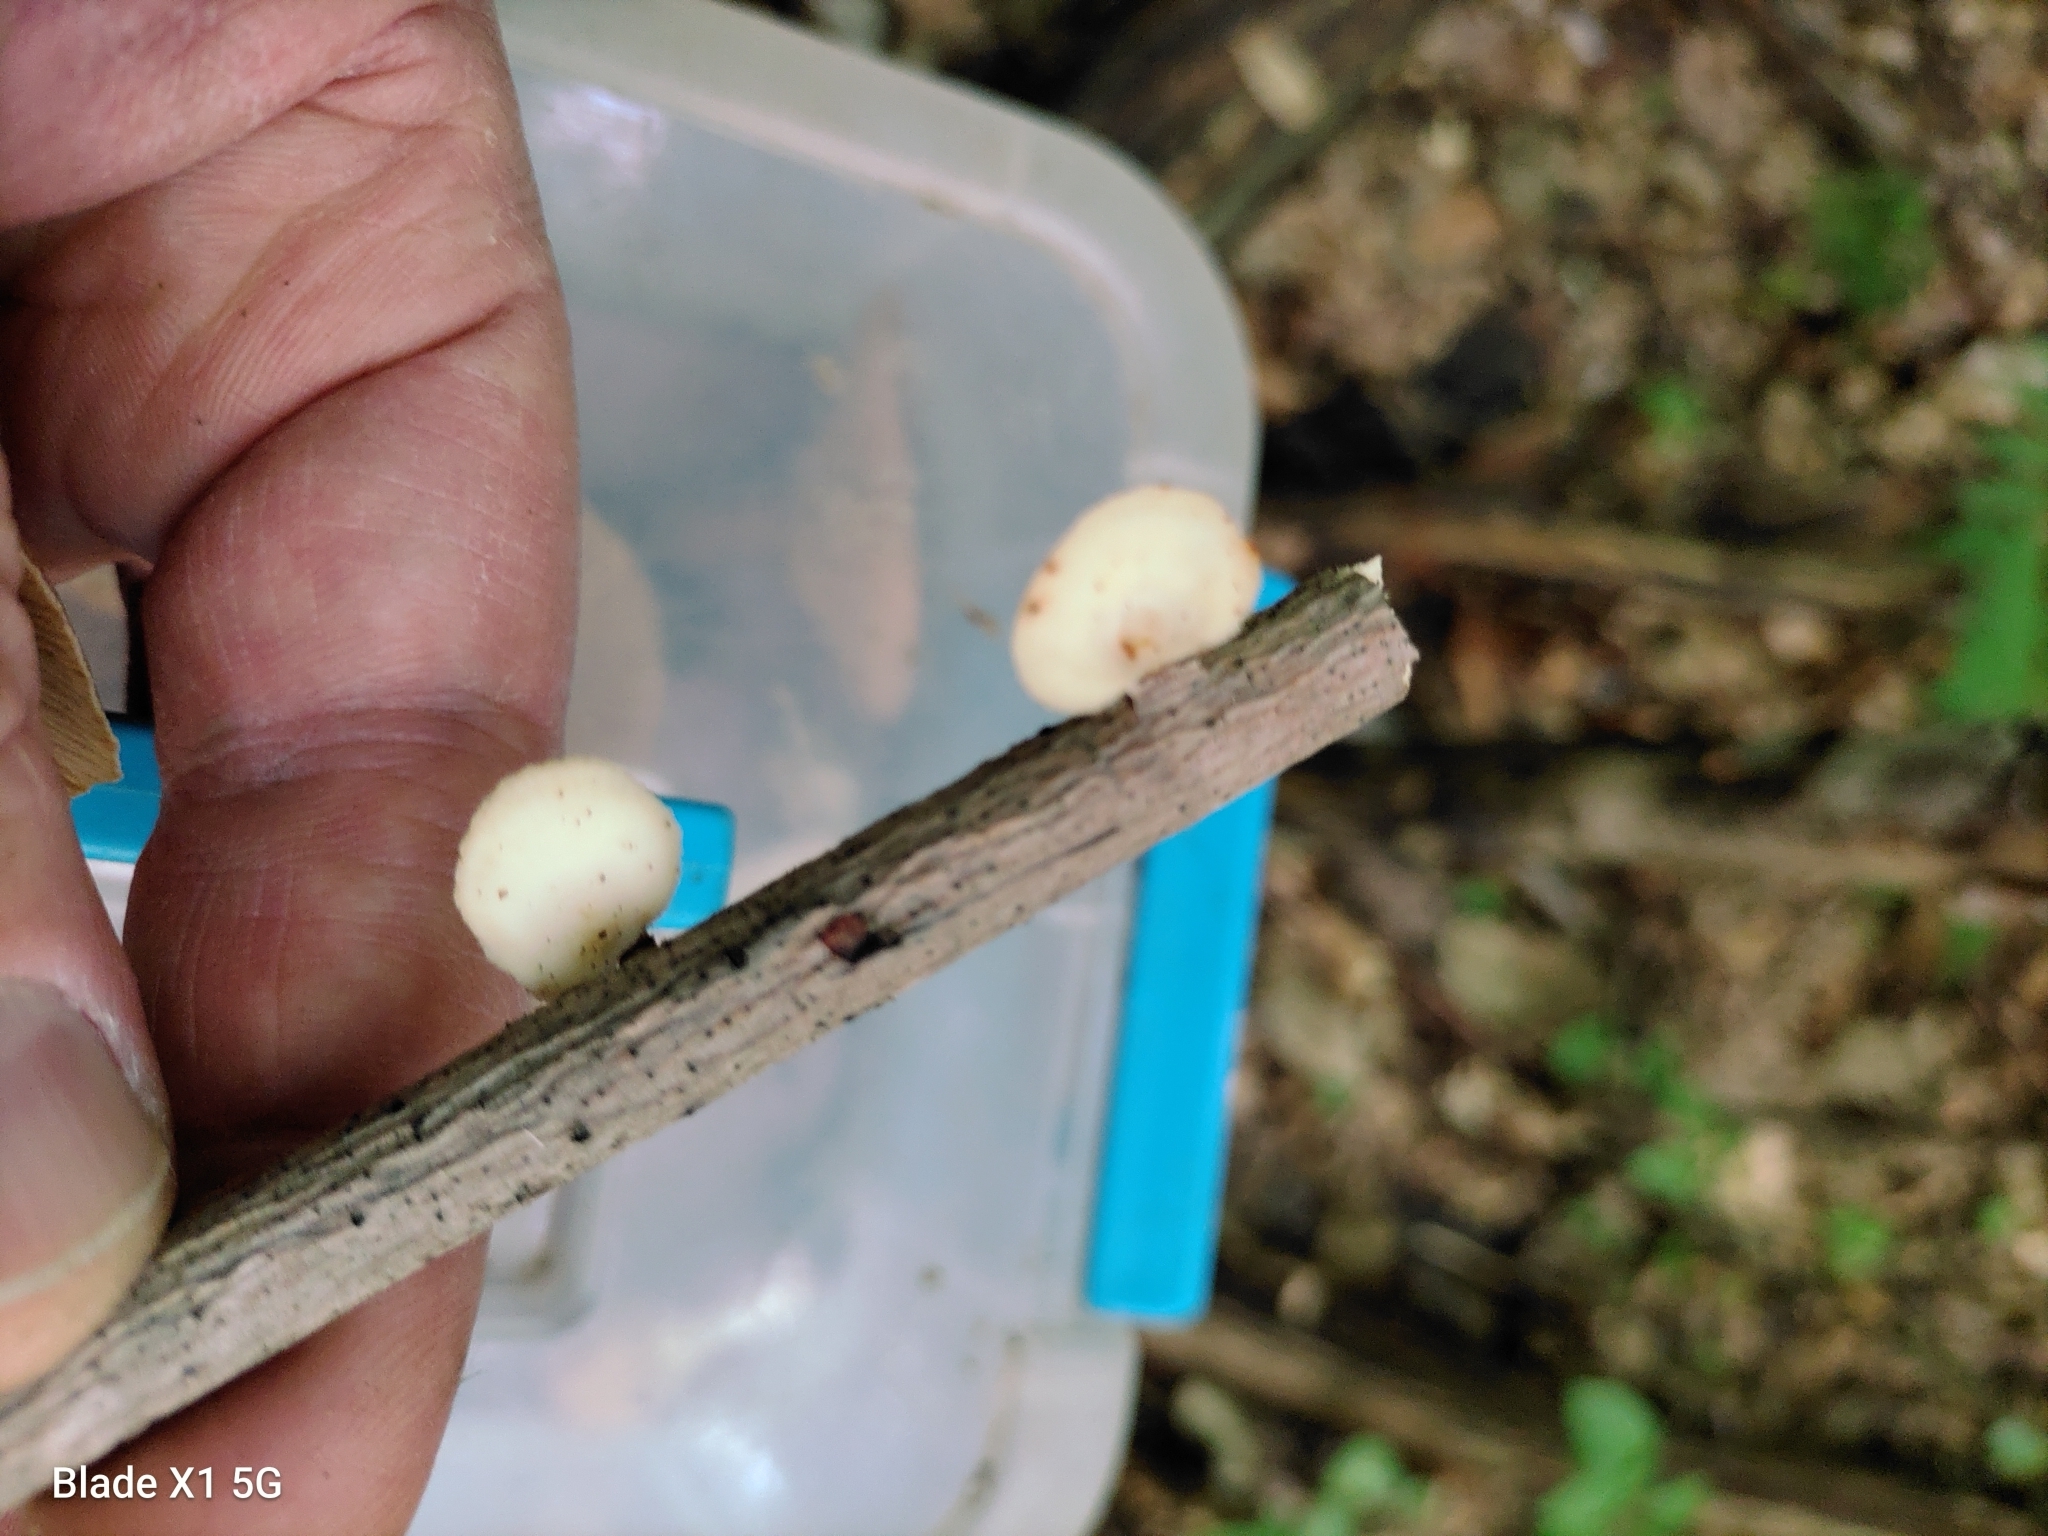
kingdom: Fungi
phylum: Basidiomycota
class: Agaricomycetes
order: Polyporales
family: Polyporaceae
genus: Neofavolus
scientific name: Neofavolus suavissimus
